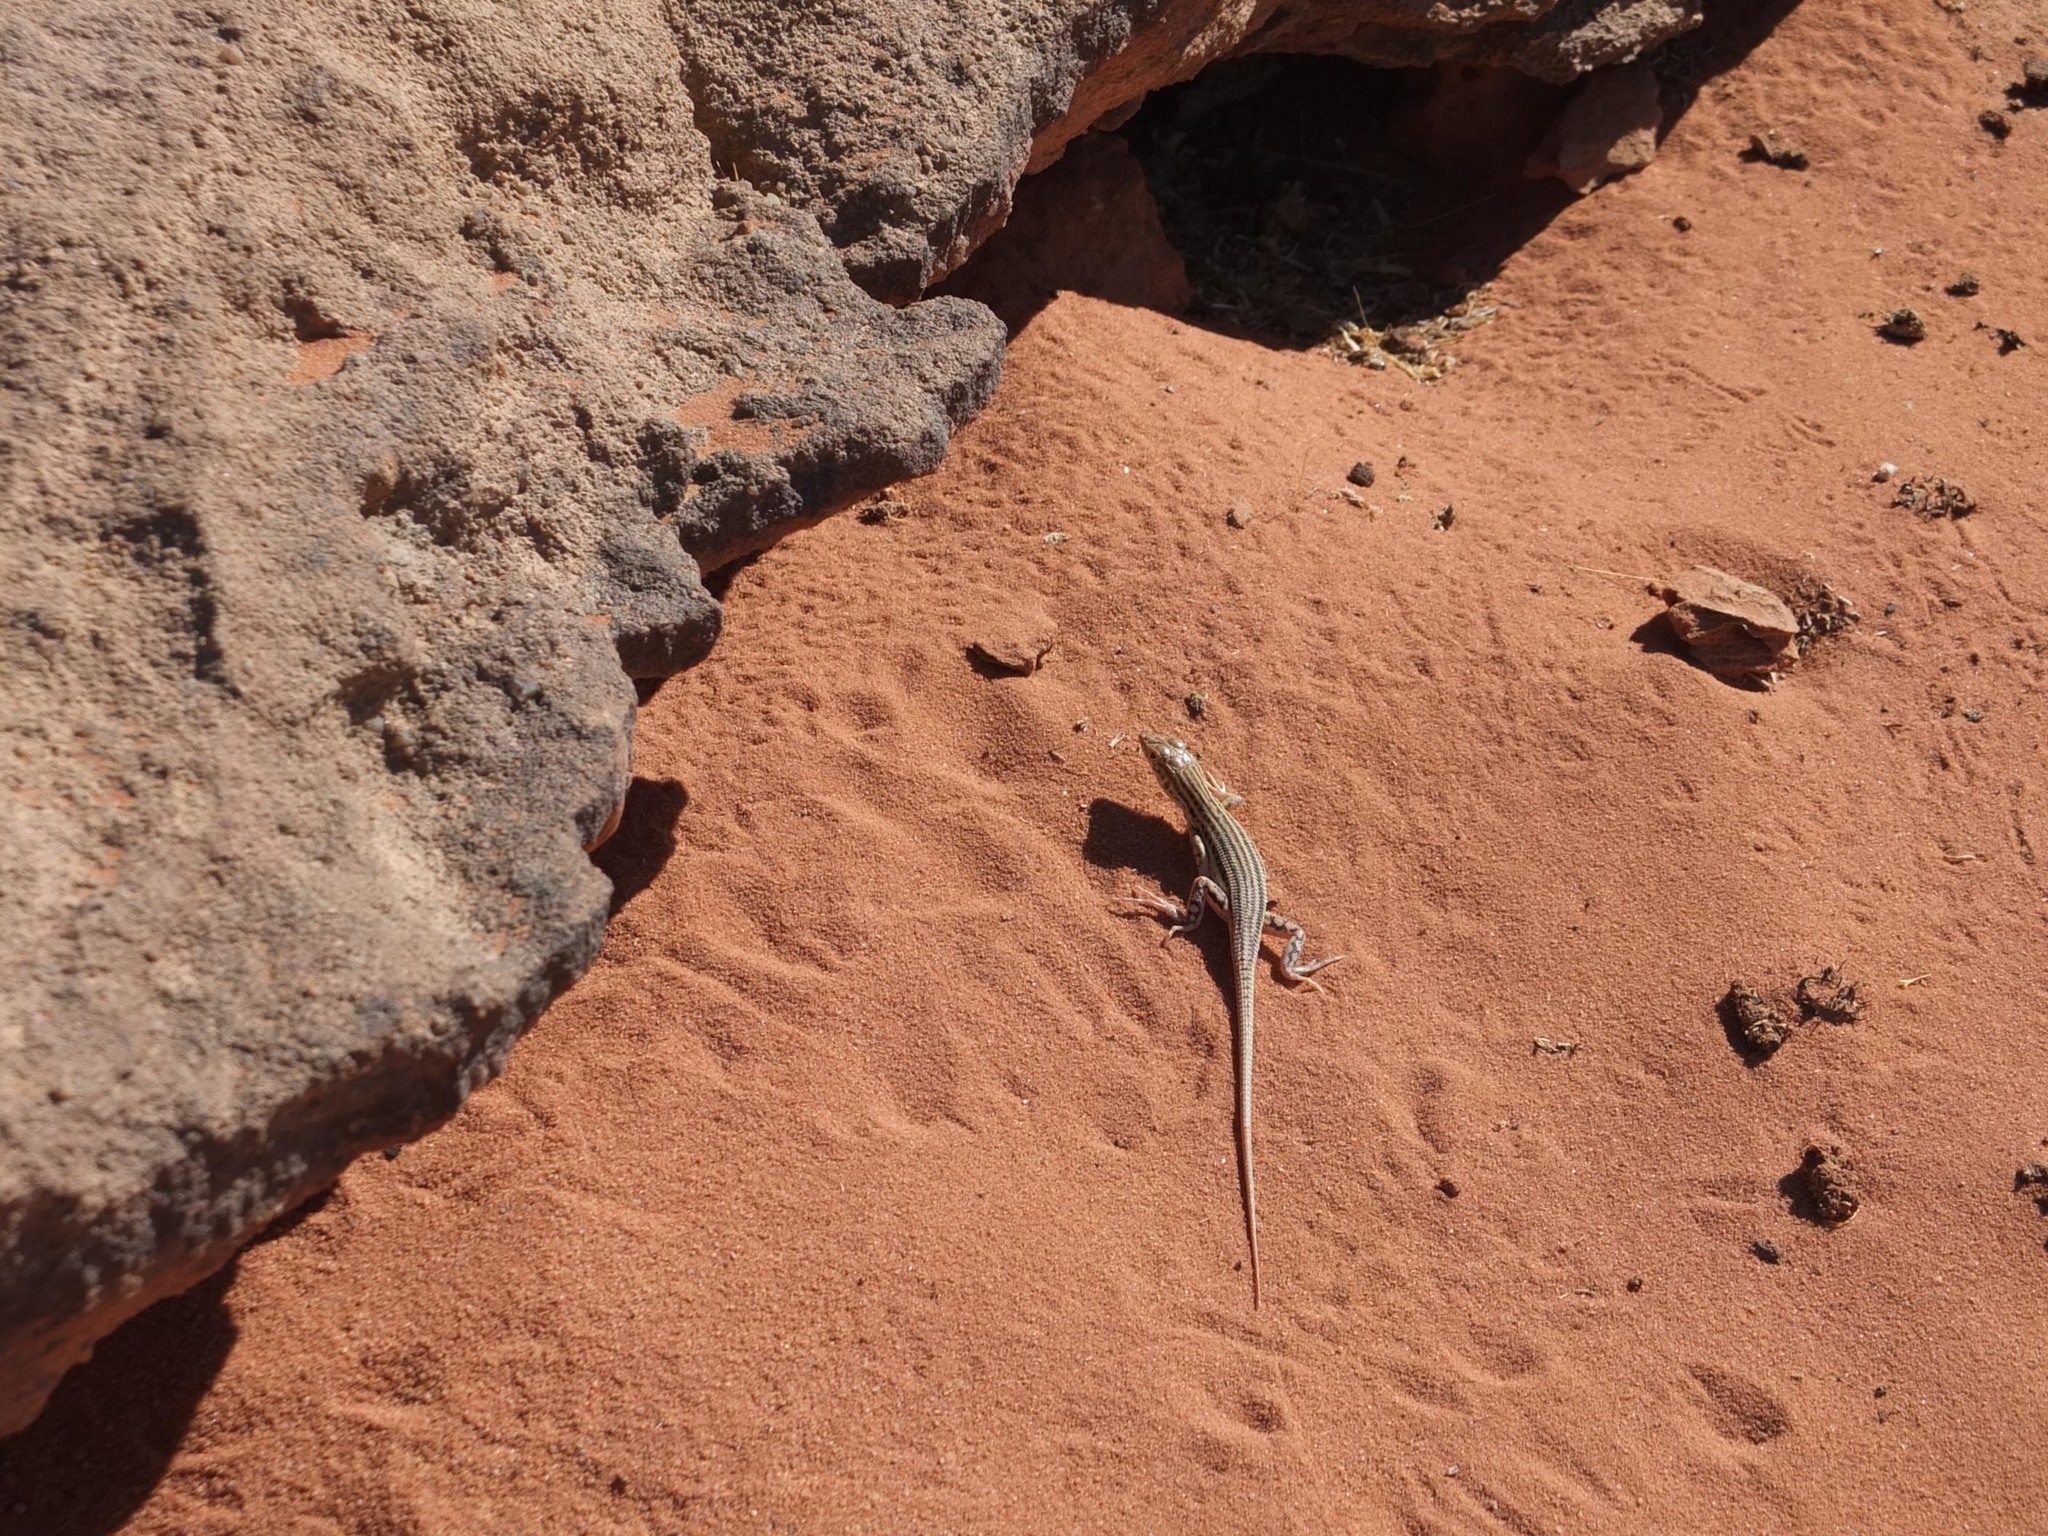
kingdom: Animalia
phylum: Chordata
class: Squamata
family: Lacertidae
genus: Acanthodactylus
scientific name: Acanthodactylus schmidti
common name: Schmidt's fringe-toed lizard
